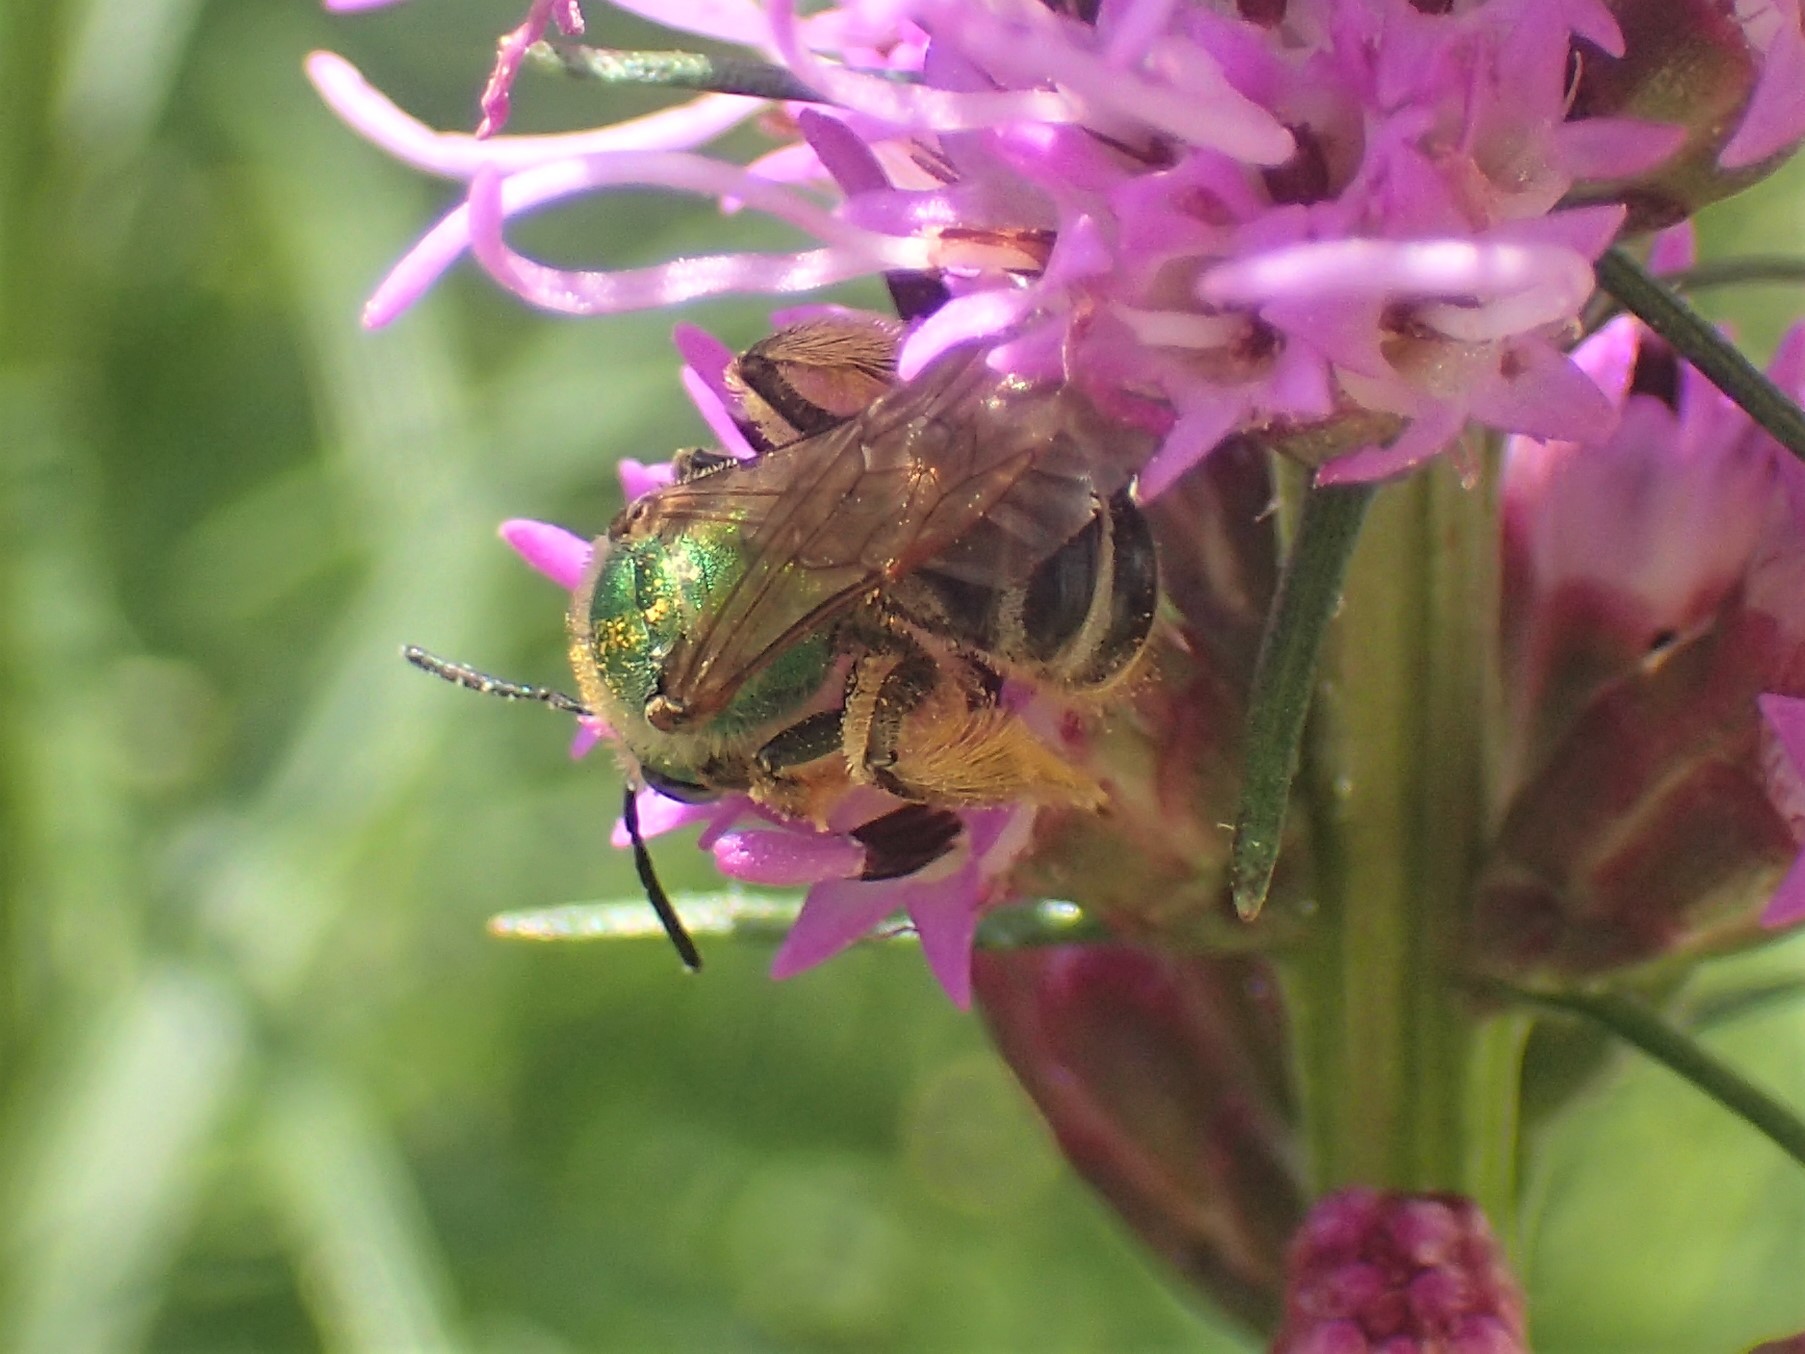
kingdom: Animalia
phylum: Arthropoda
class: Insecta
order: Hymenoptera
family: Halictidae
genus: Agapostemon
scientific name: Agapostemon virescens
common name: Bicolored striped sweat bee
